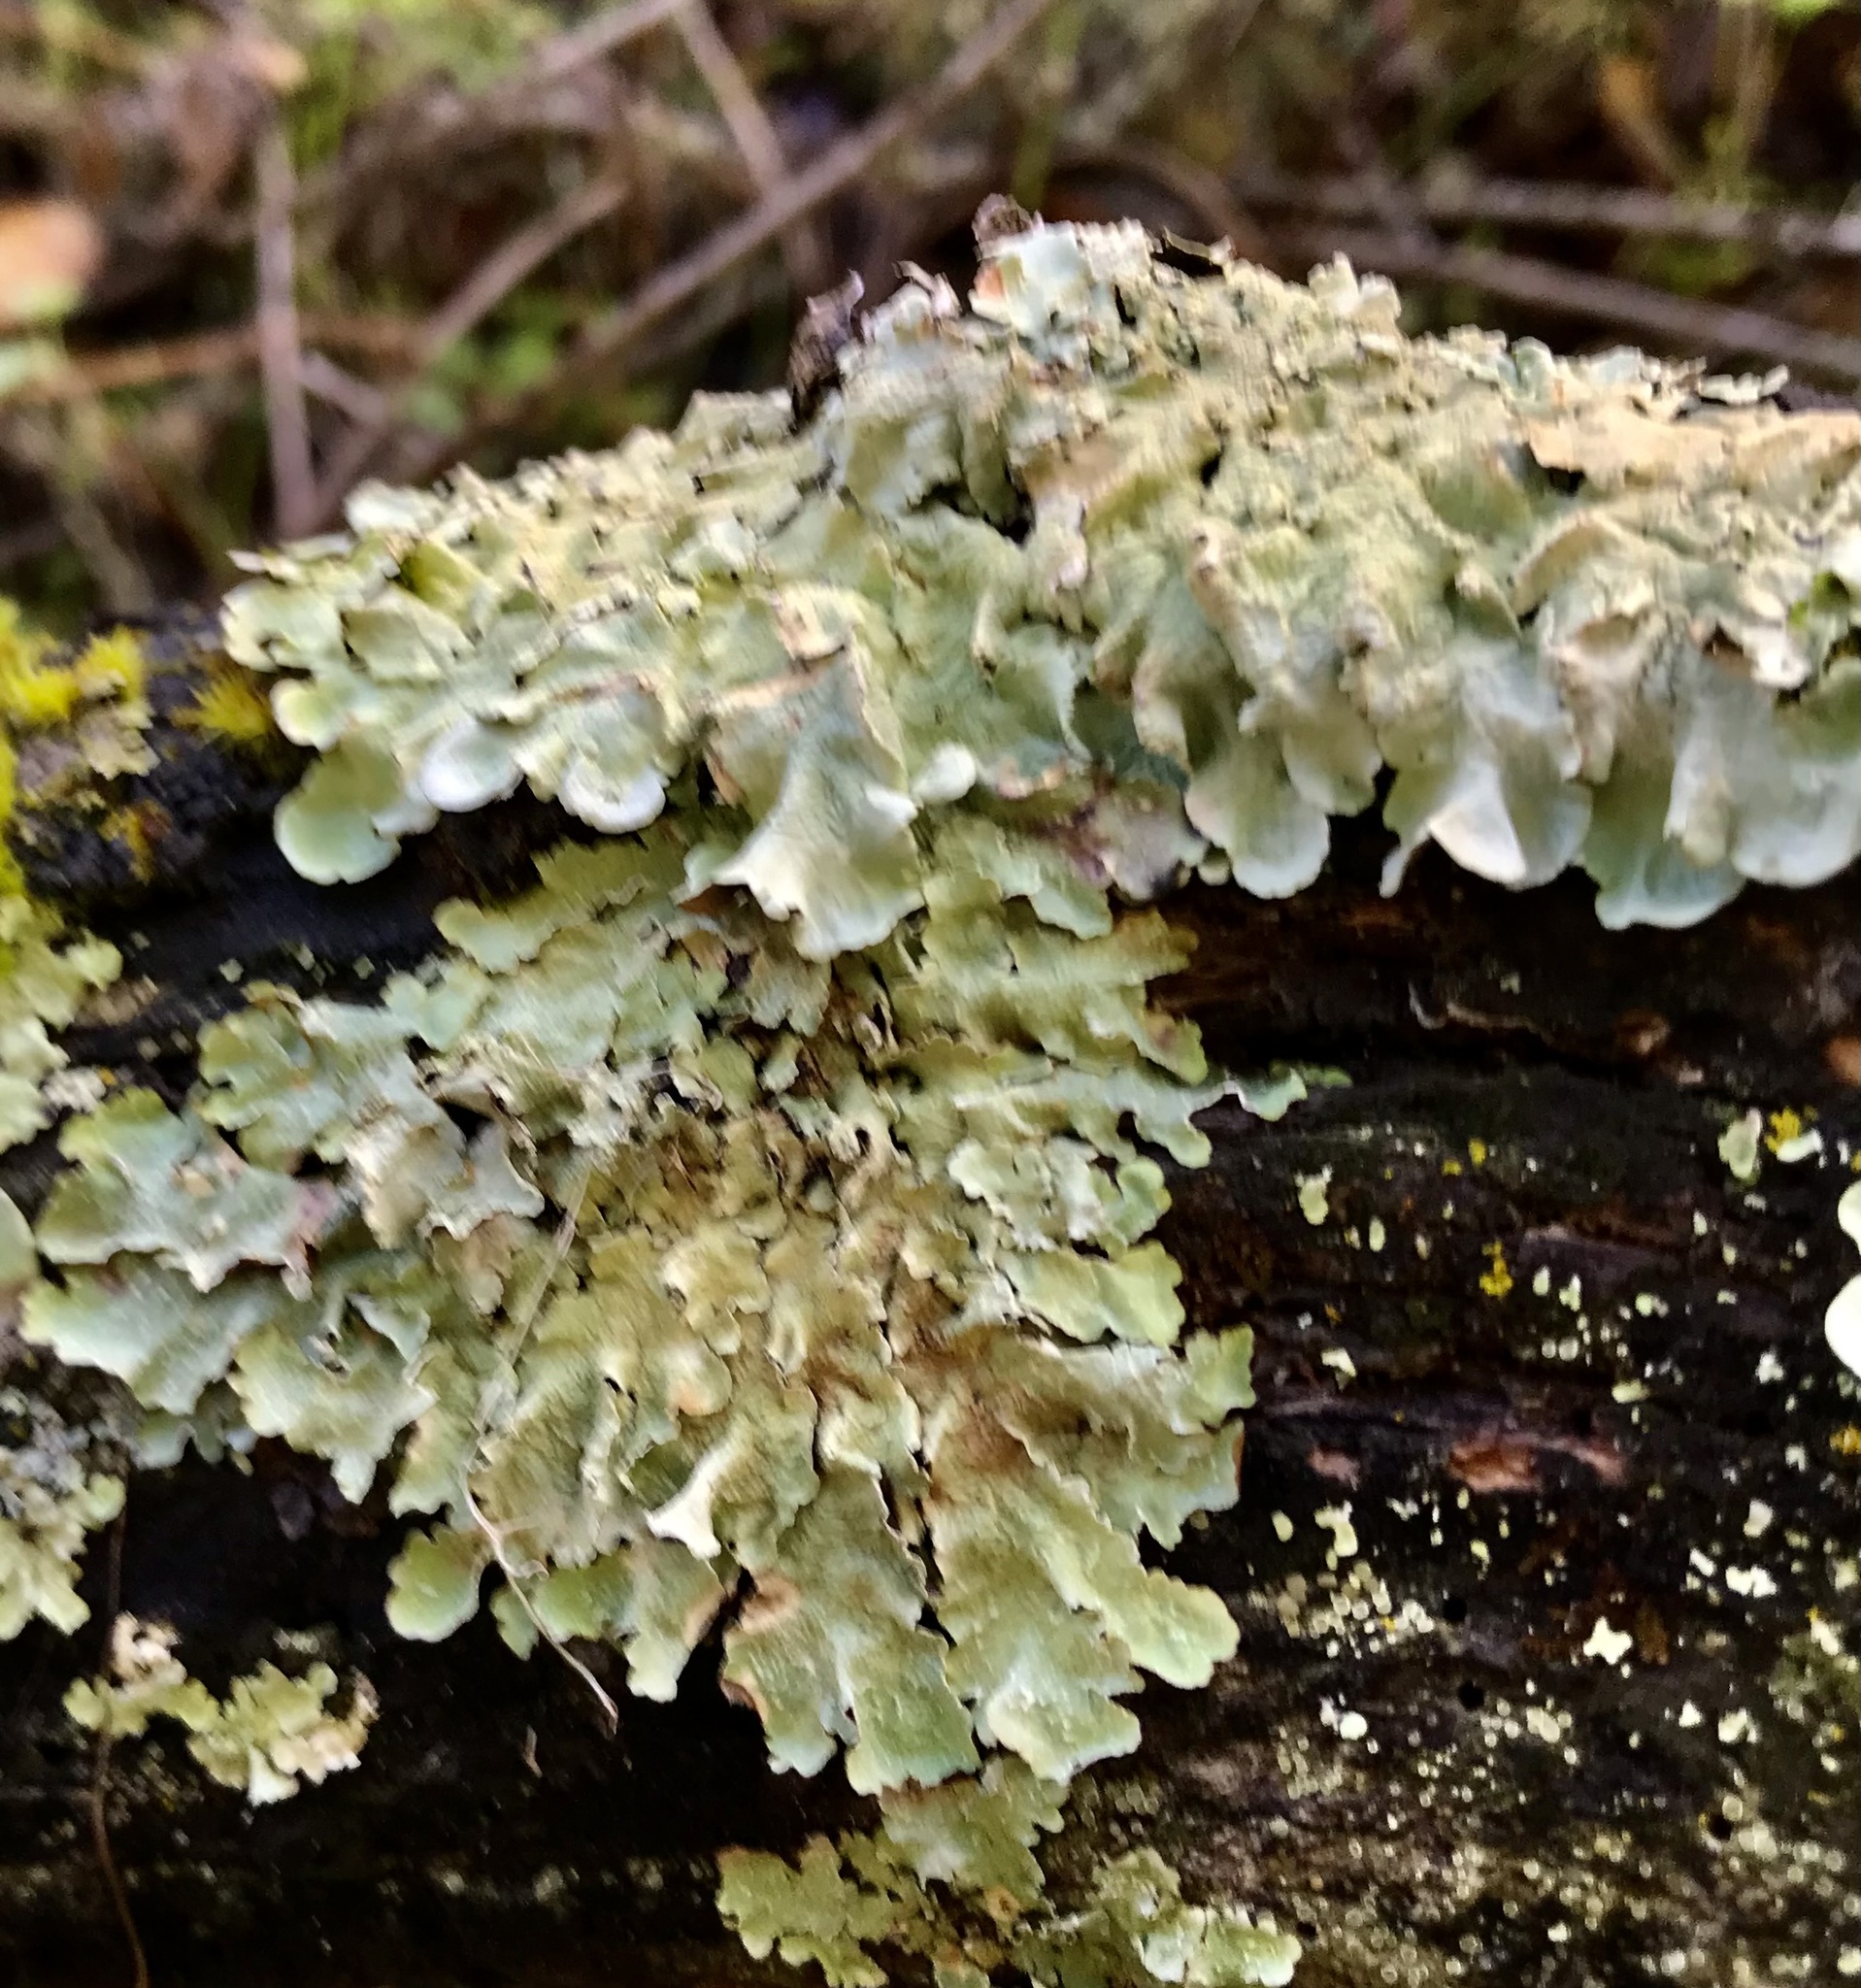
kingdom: Fungi
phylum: Ascomycota
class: Lecanoromycetes
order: Lecanorales
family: Parmeliaceae
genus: Flavoparmelia
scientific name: Flavoparmelia caperata
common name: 40-mile per hour lichen
